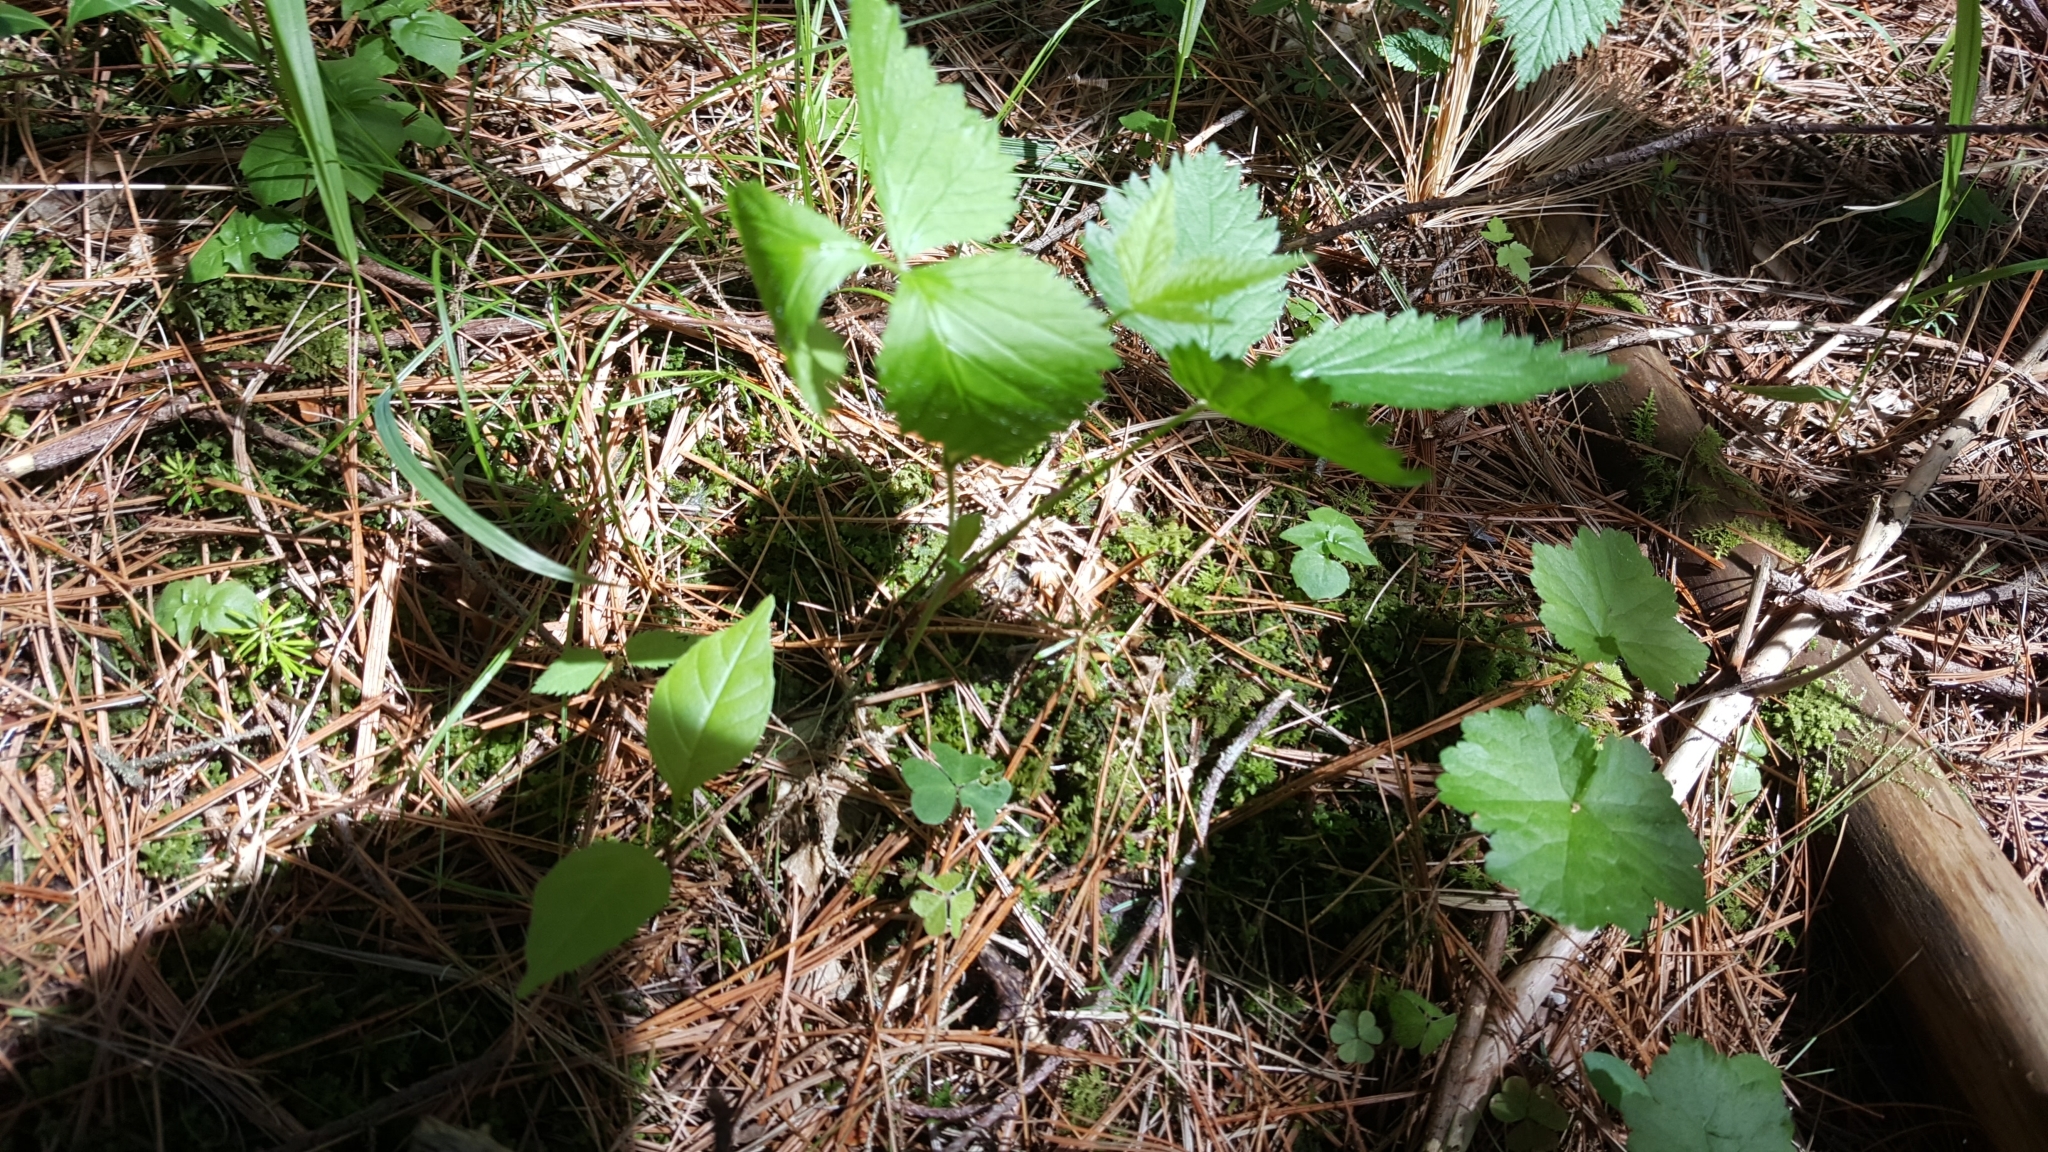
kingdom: Plantae
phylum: Tracheophyta
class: Magnoliopsida
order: Rosales
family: Rosaceae
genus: Rubus
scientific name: Rubus pubescens
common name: Dwarf raspberry
